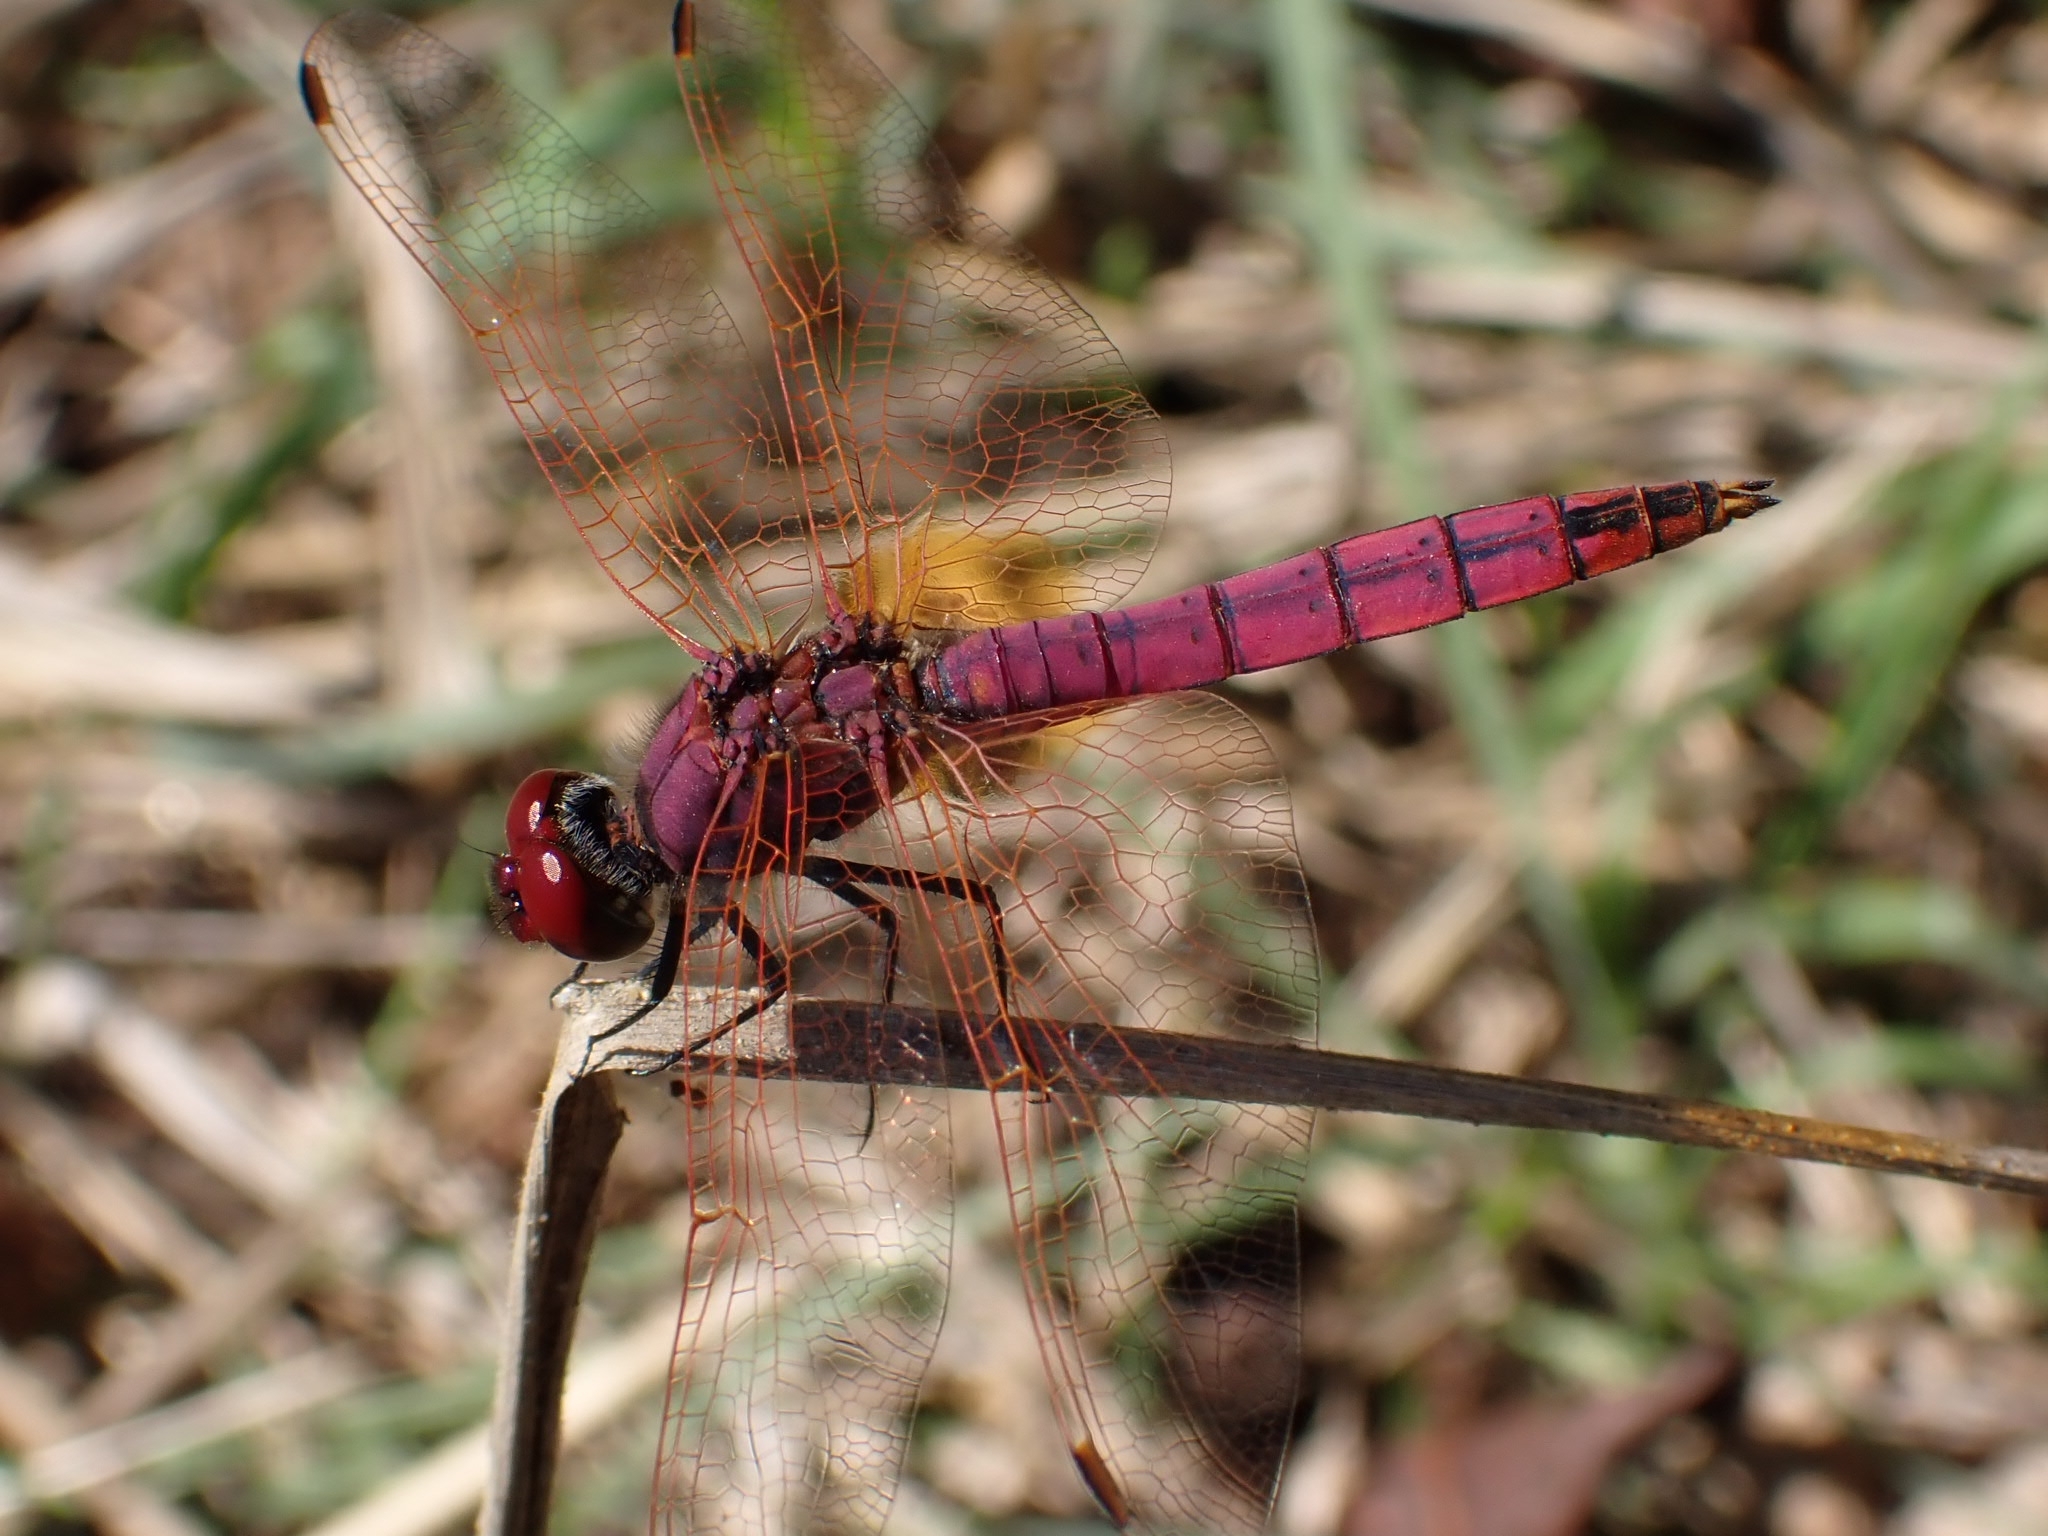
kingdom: Animalia
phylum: Arthropoda
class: Insecta
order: Odonata
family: Libellulidae
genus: Trithemis
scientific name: Trithemis annulata
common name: Violet dropwing
